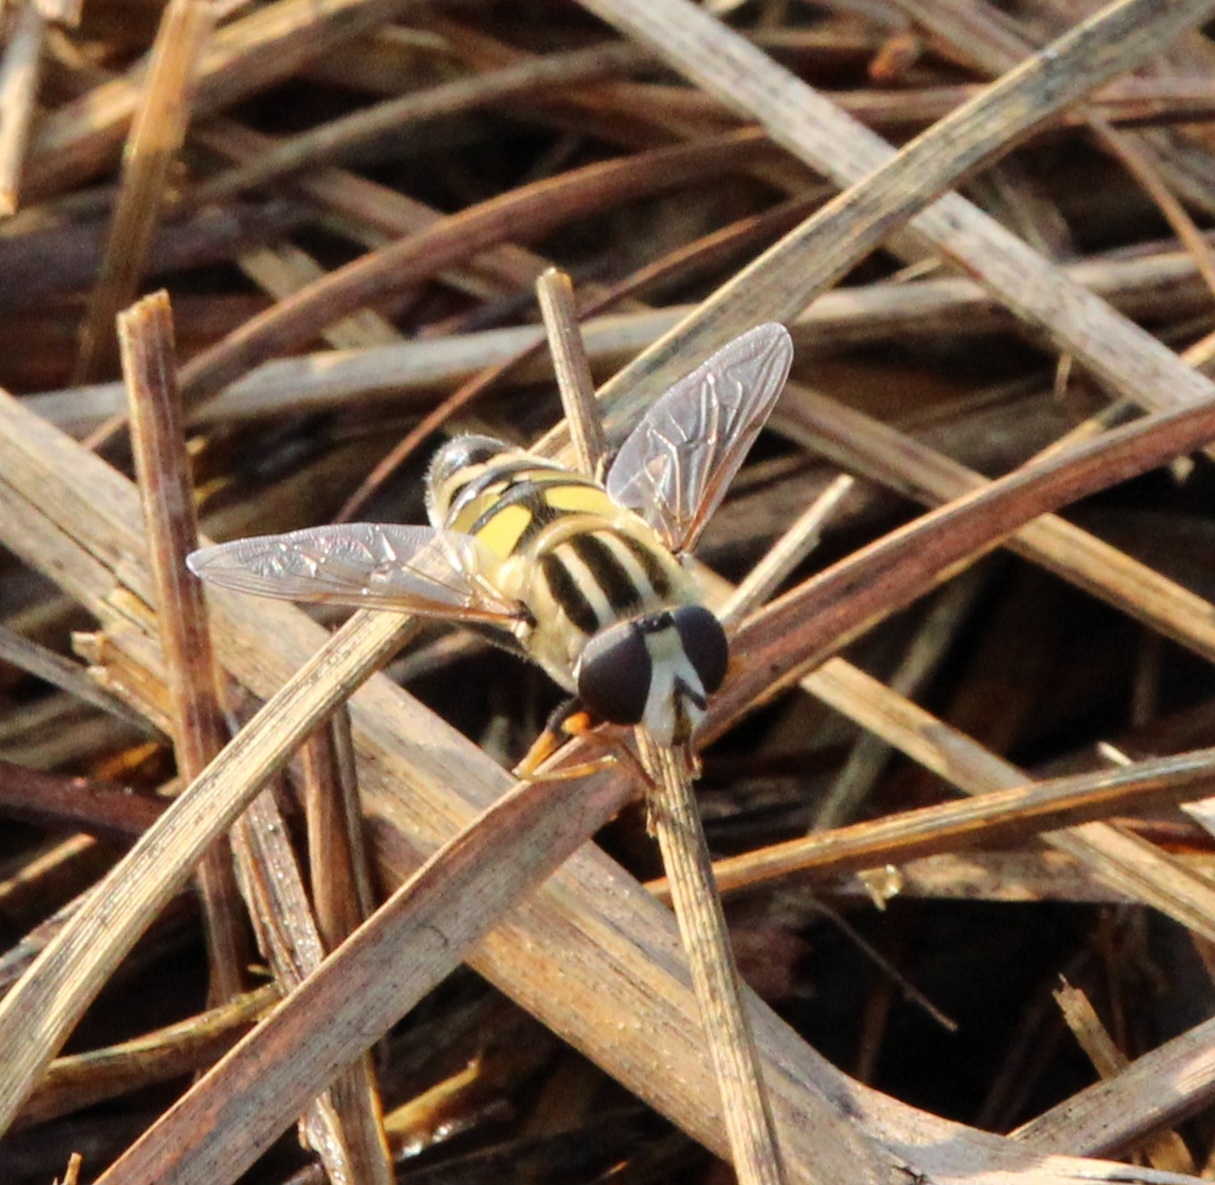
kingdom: Animalia
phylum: Arthropoda
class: Insecta
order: Diptera
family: Syrphidae
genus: Helophilus
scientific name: Helophilus trivittatus
